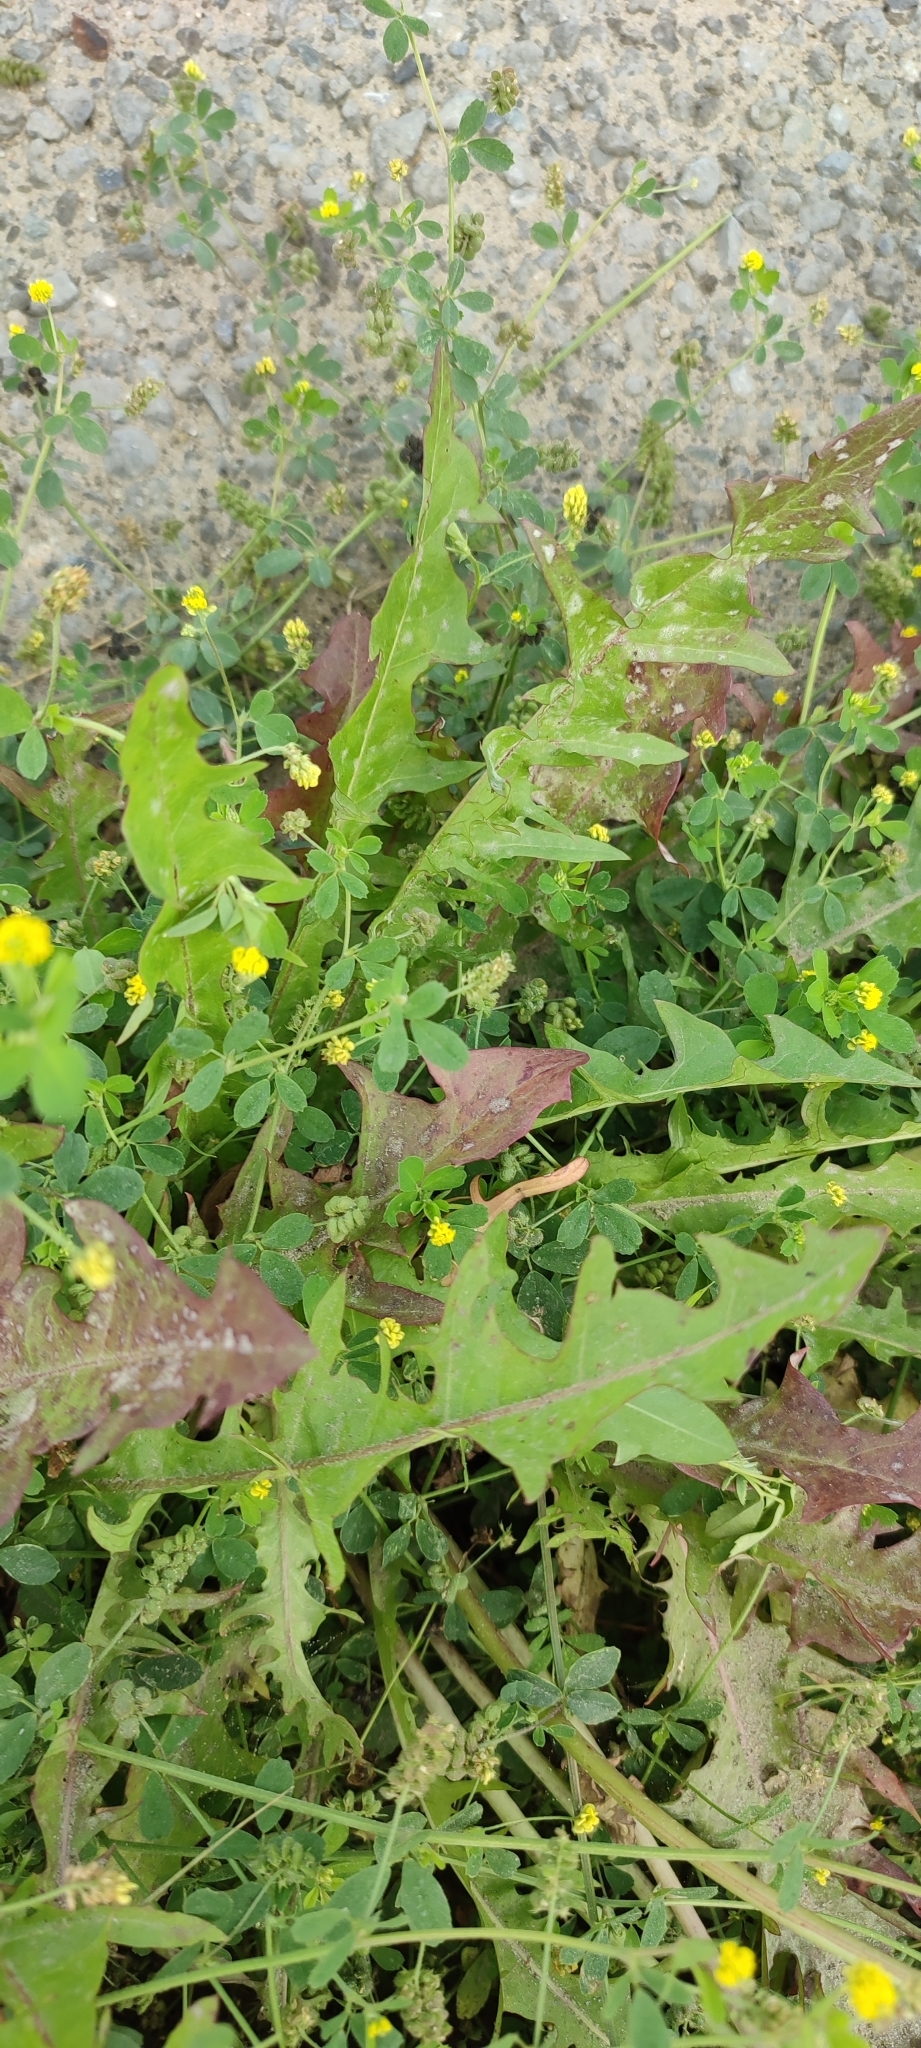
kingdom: Plantae
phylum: Tracheophyta
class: Magnoliopsida
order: Asterales
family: Asteraceae
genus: Taraxacum
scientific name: Taraxacum officinale
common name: Common dandelion
